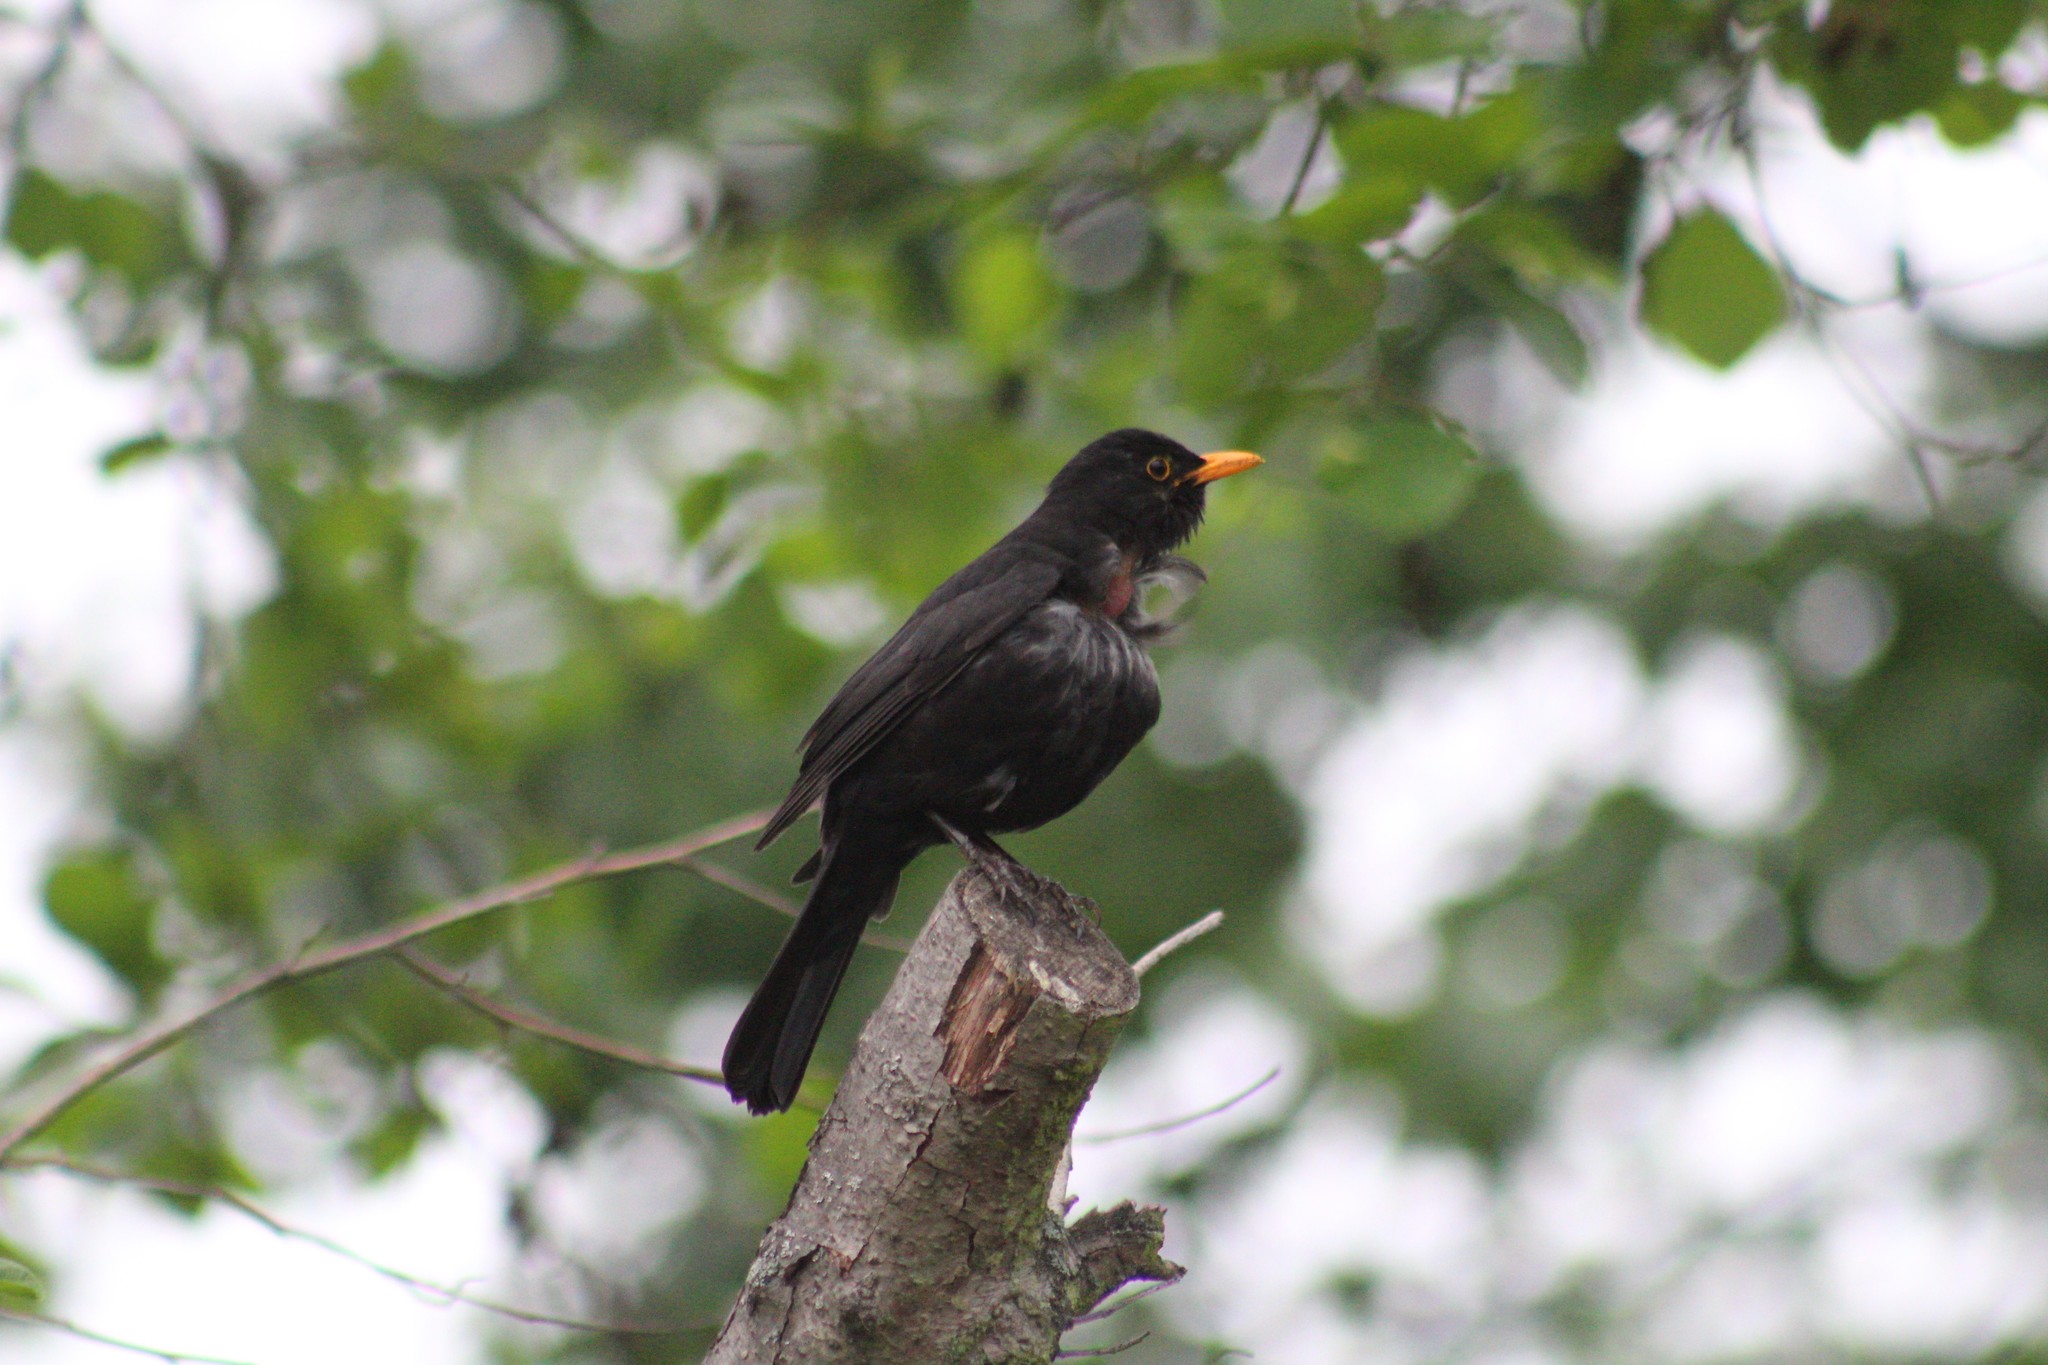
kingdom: Animalia
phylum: Chordata
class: Aves
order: Passeriformes
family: Turdidae
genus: Turdus
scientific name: Turdus merula
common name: Common blackbird
